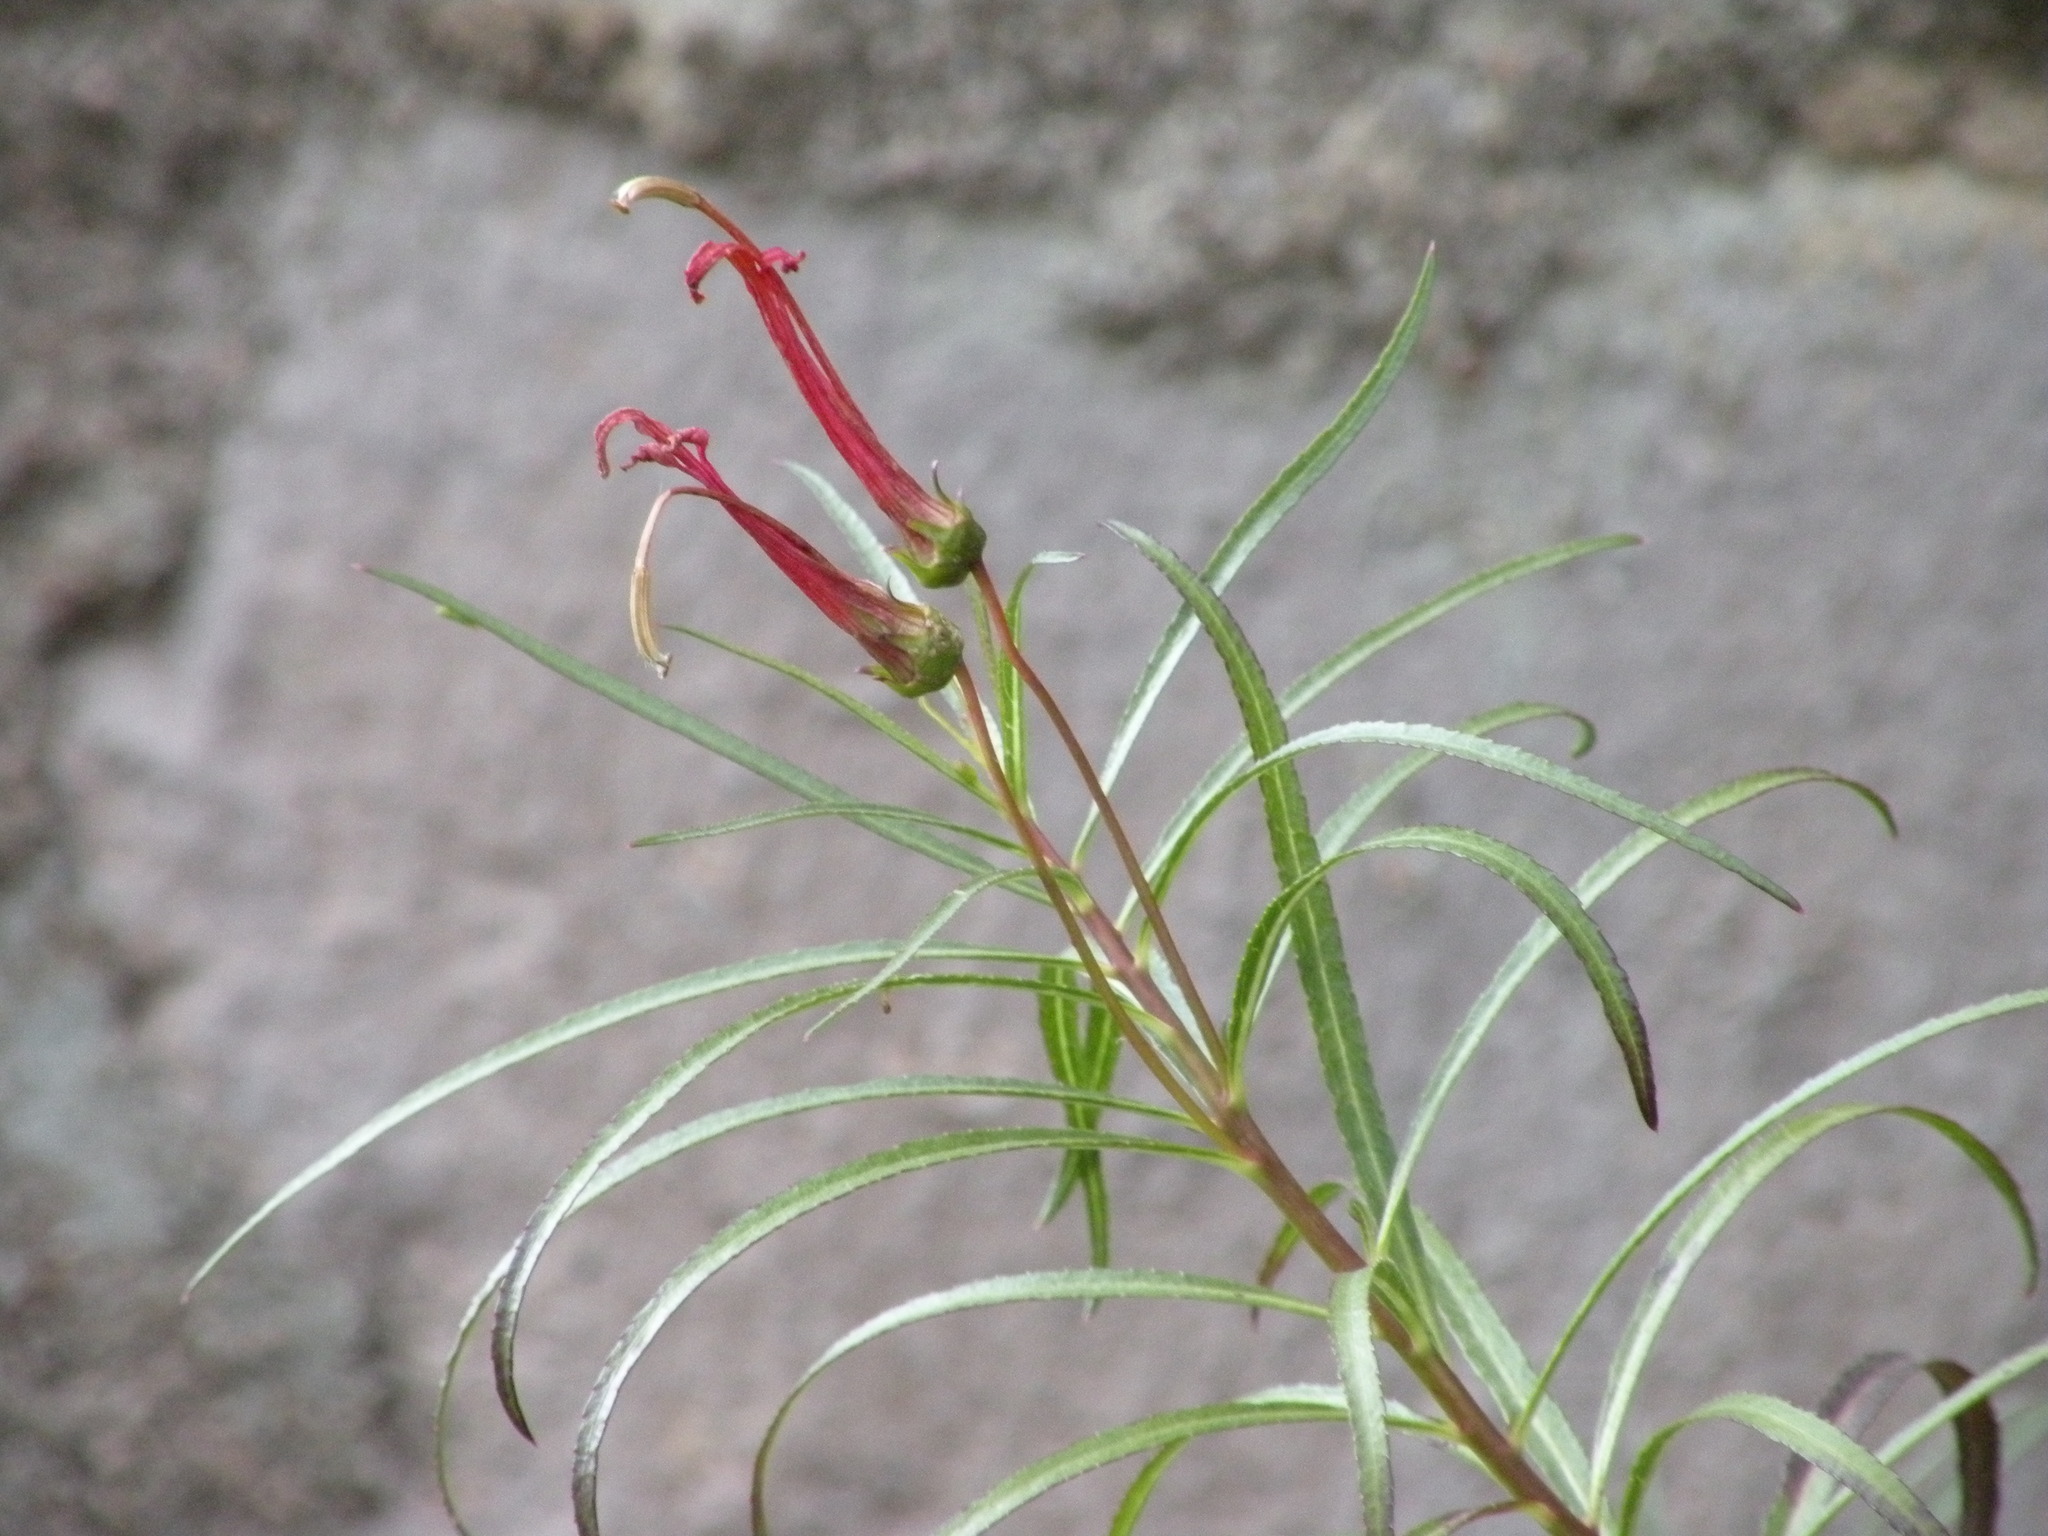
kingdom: Plantae
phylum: Tracheophyta
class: Magnoliopsida
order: Asterales
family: Campanulaceae
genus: Lobelia
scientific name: Lobelia laxiflora
